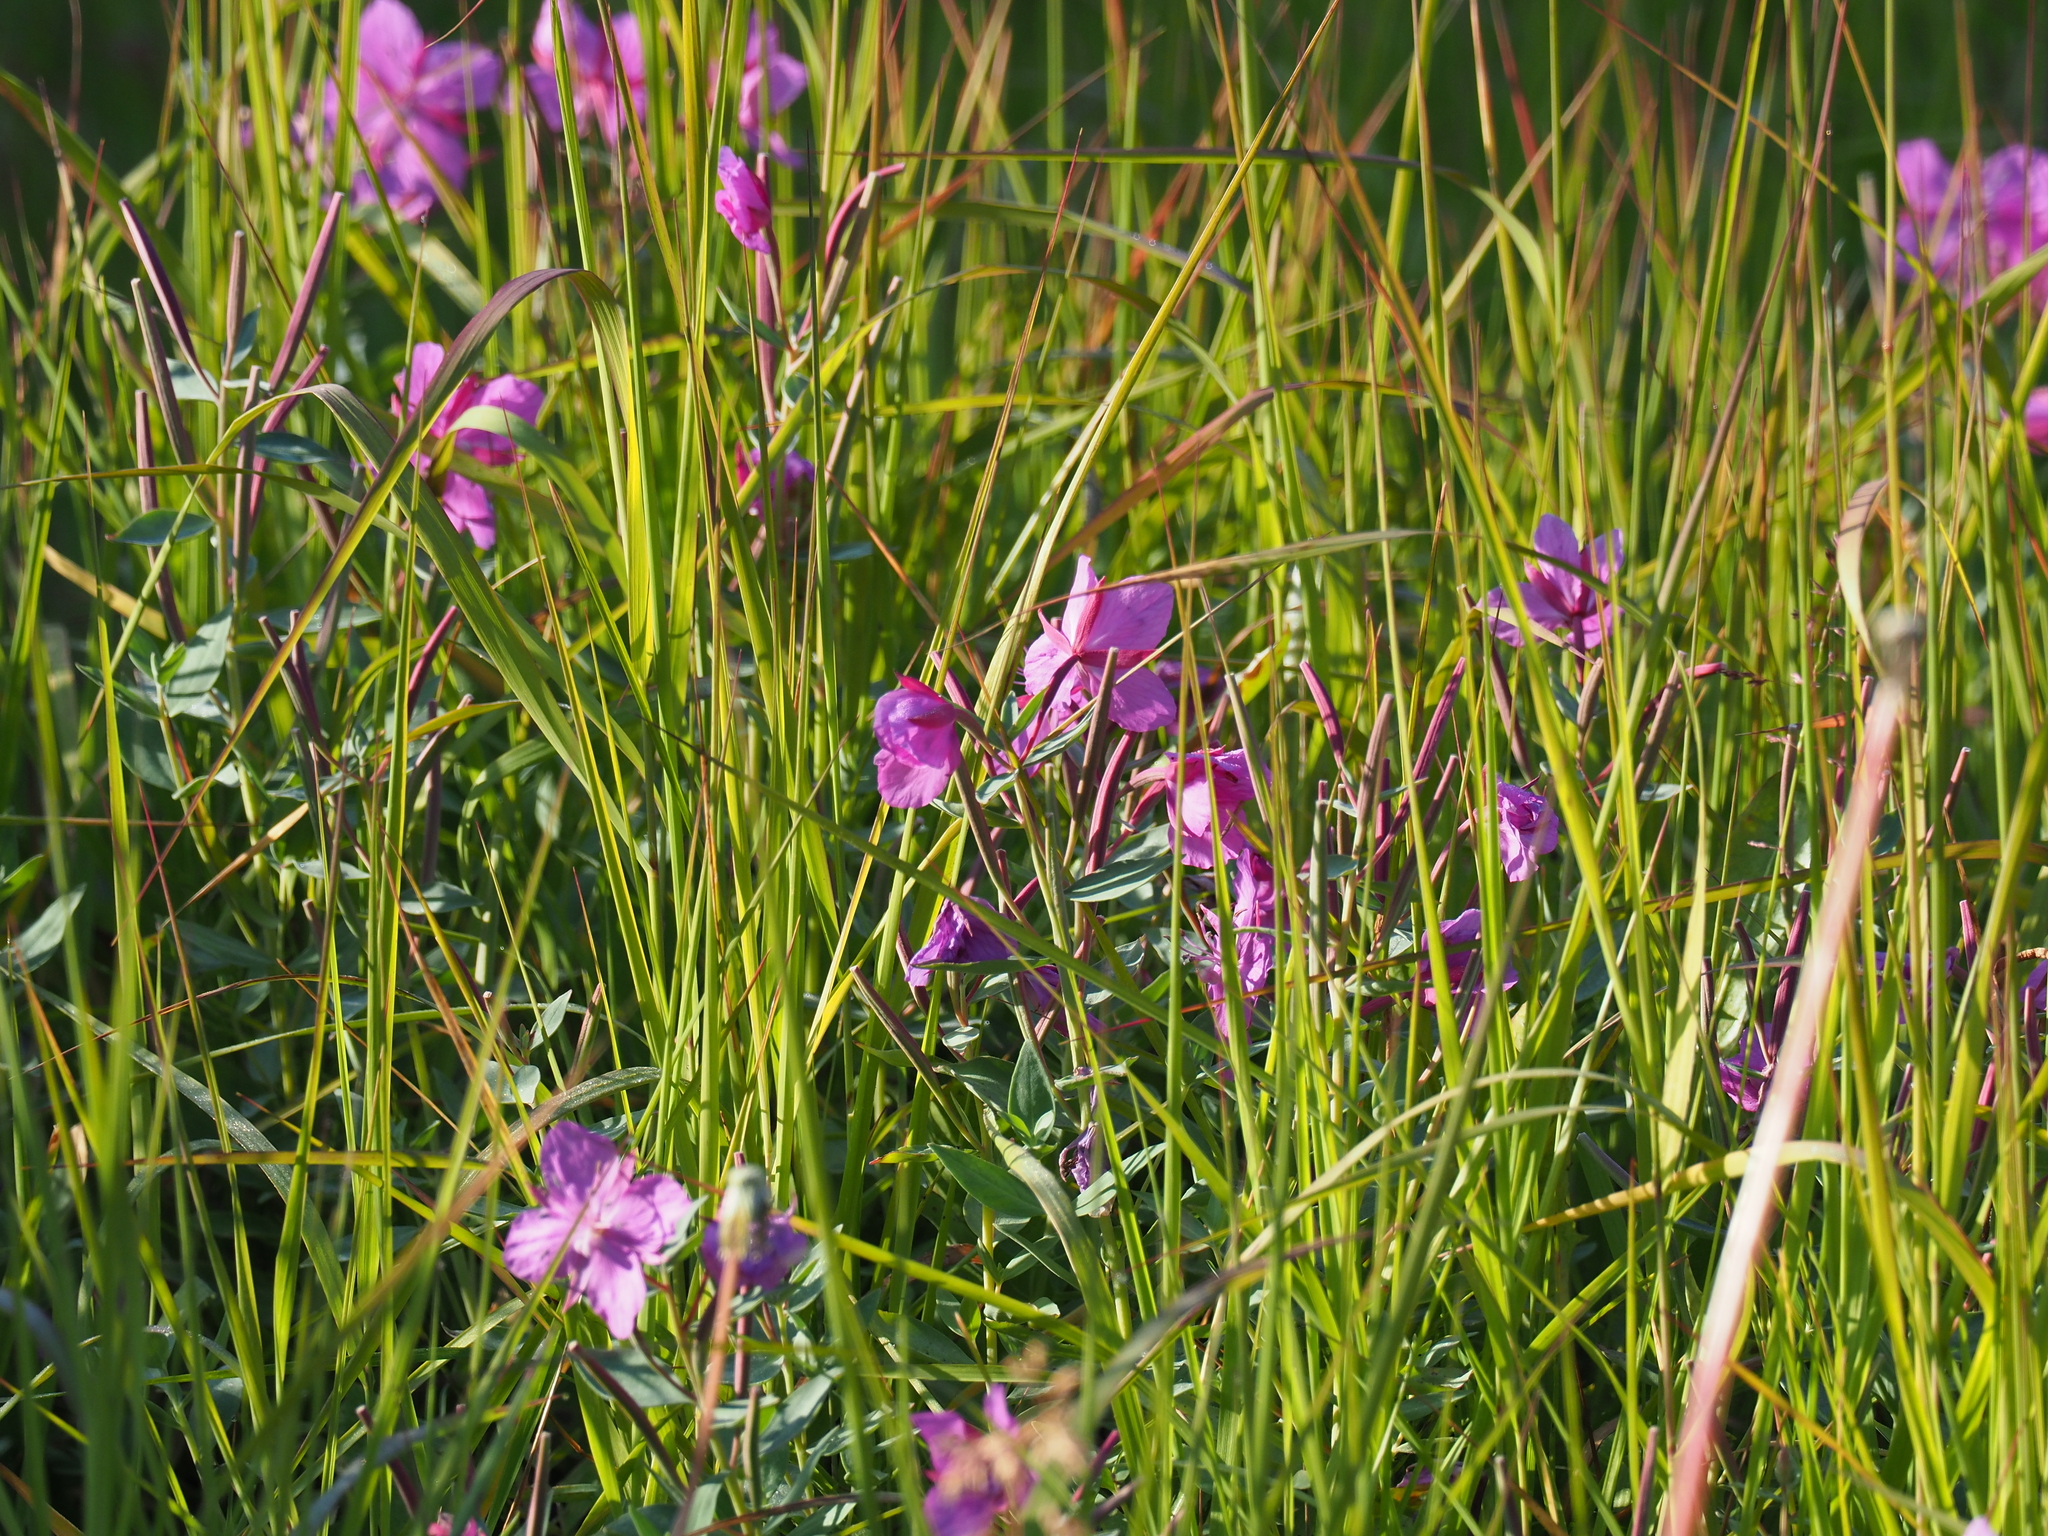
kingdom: Plantae
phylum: Tracheophyta
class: Magnoliopsida
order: Myrtales
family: Onagraceae
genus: Chamaenerion
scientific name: Chamaenerion latifolium
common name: Dwarf fireweed
